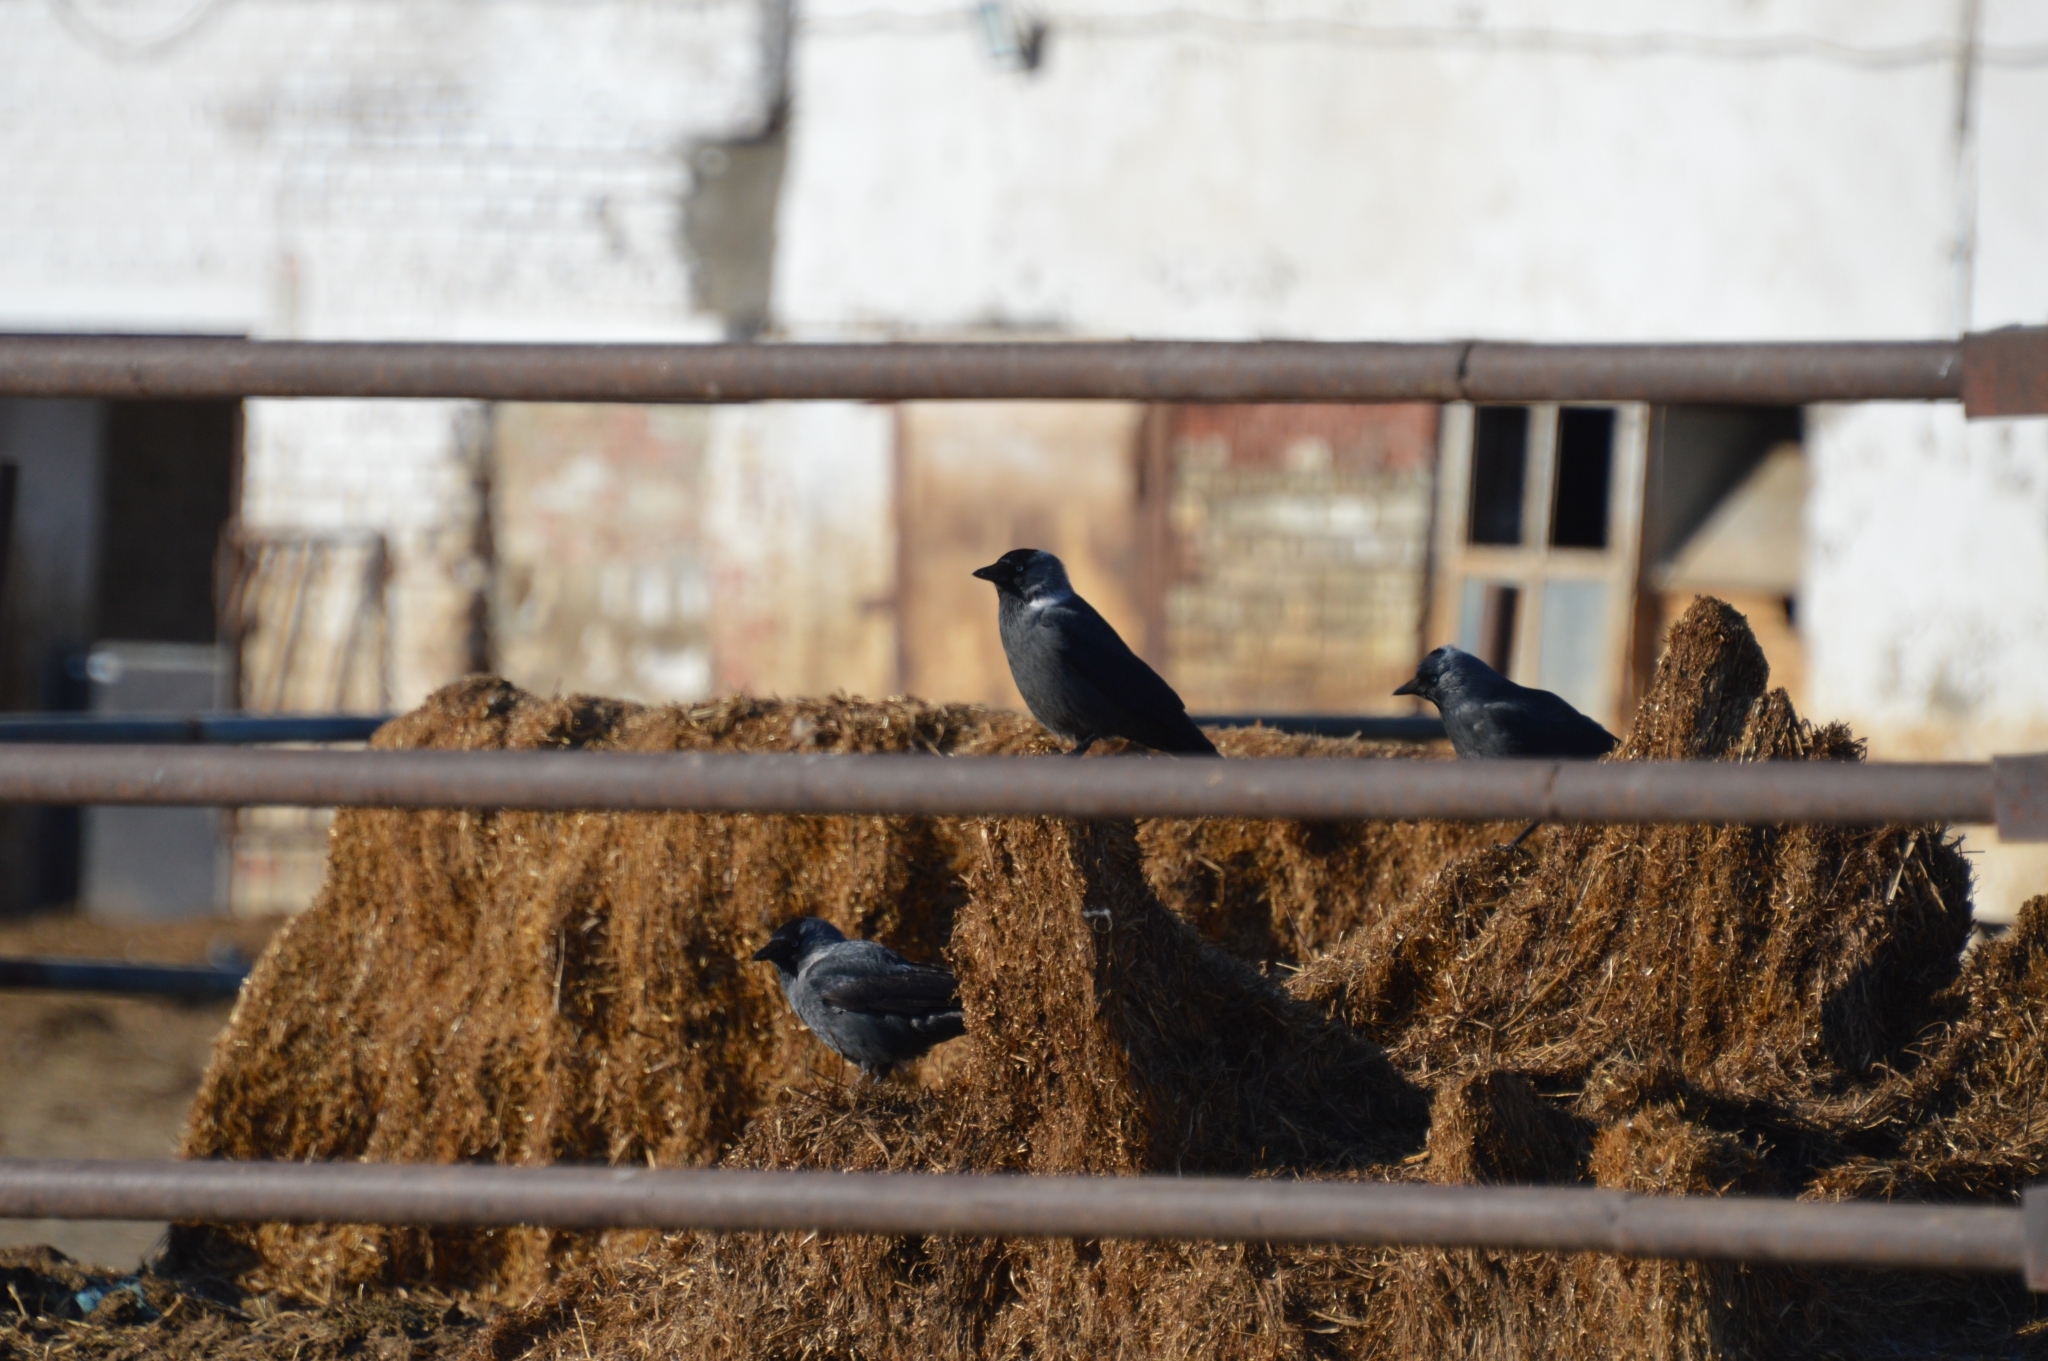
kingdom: Animalia
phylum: Chordata
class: Aves
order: Passeriformes
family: Corvidae
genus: Coloeus
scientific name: Coloeus monedula
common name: Western jackdaw
